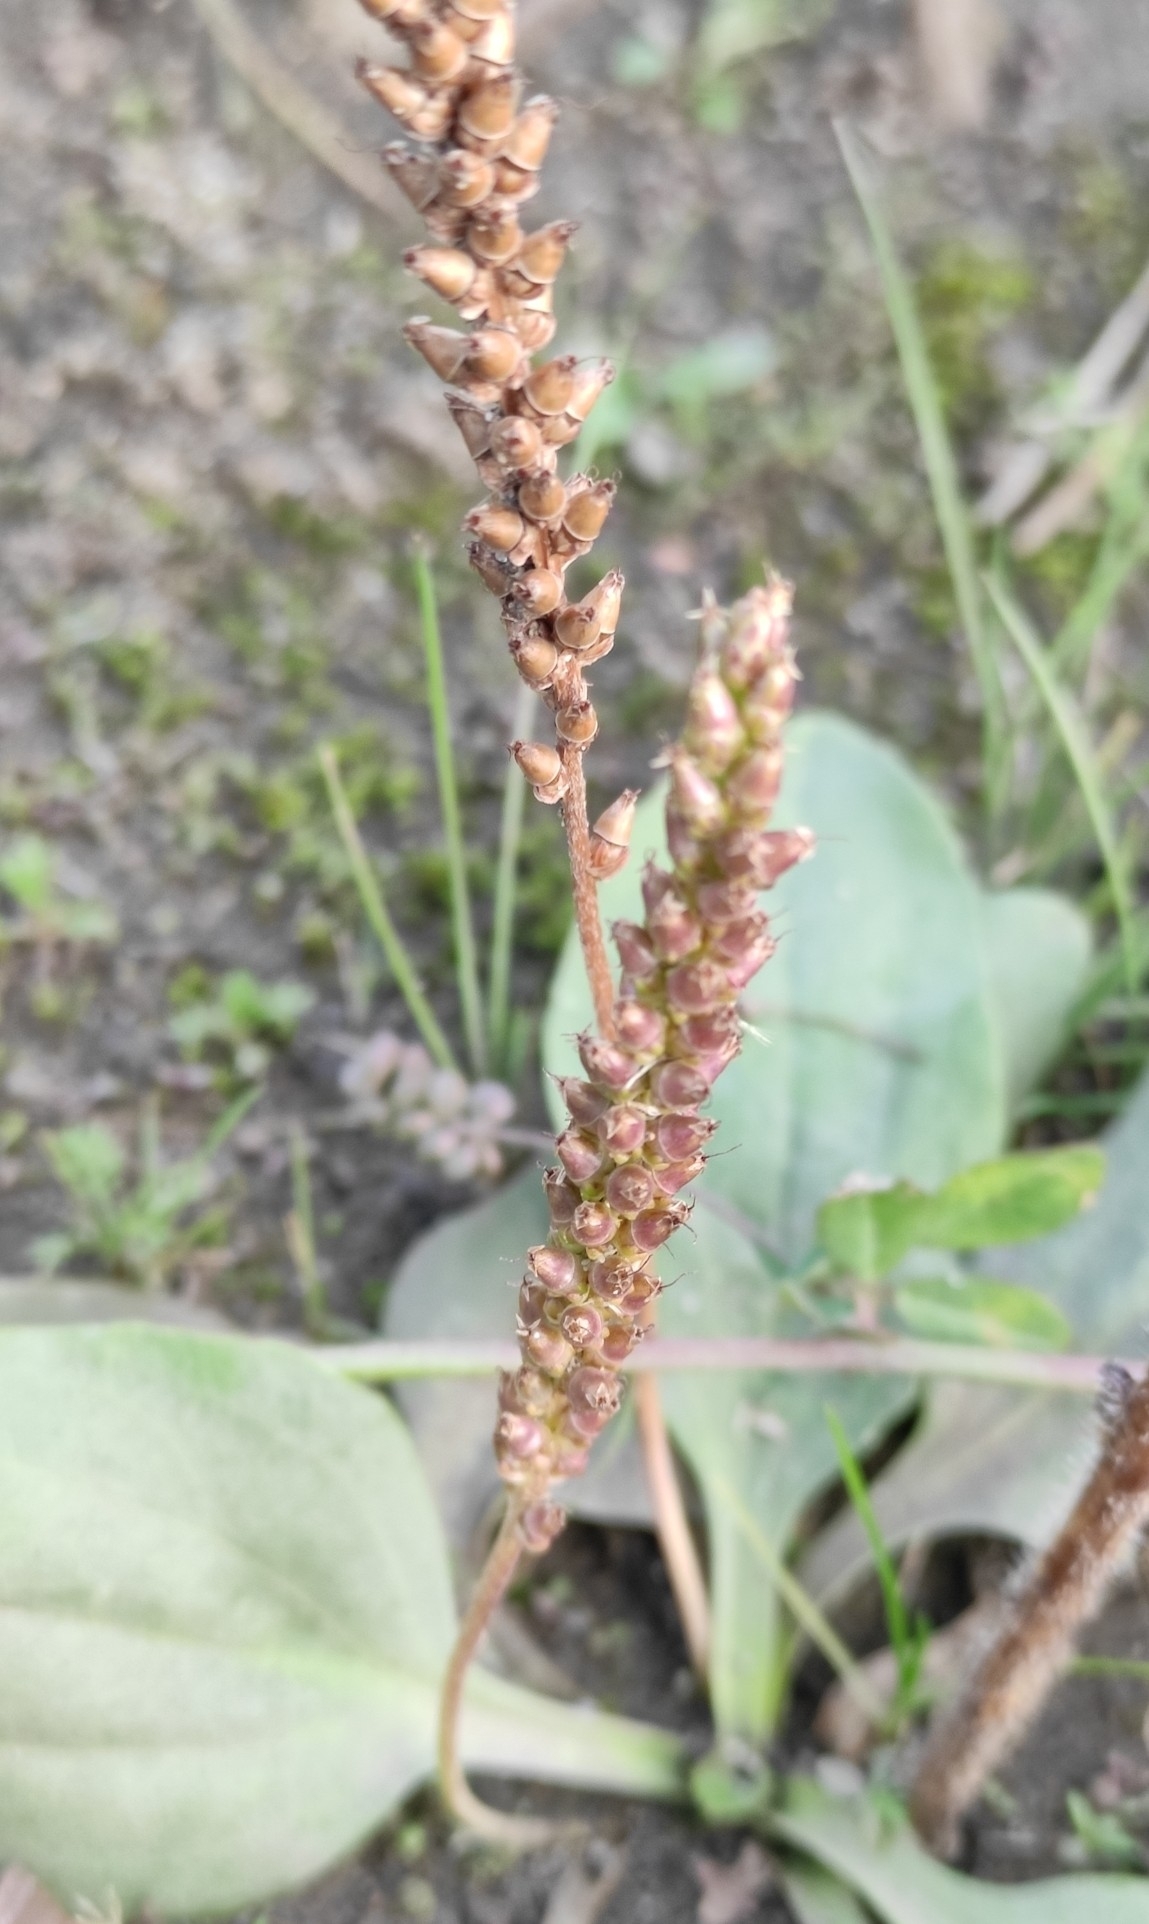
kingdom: Plantae
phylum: Tracheophyta
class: Magnoliopsida
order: Lamiales
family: Plantaginaceae
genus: Plantago
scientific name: Plantago major
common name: Common plantain
